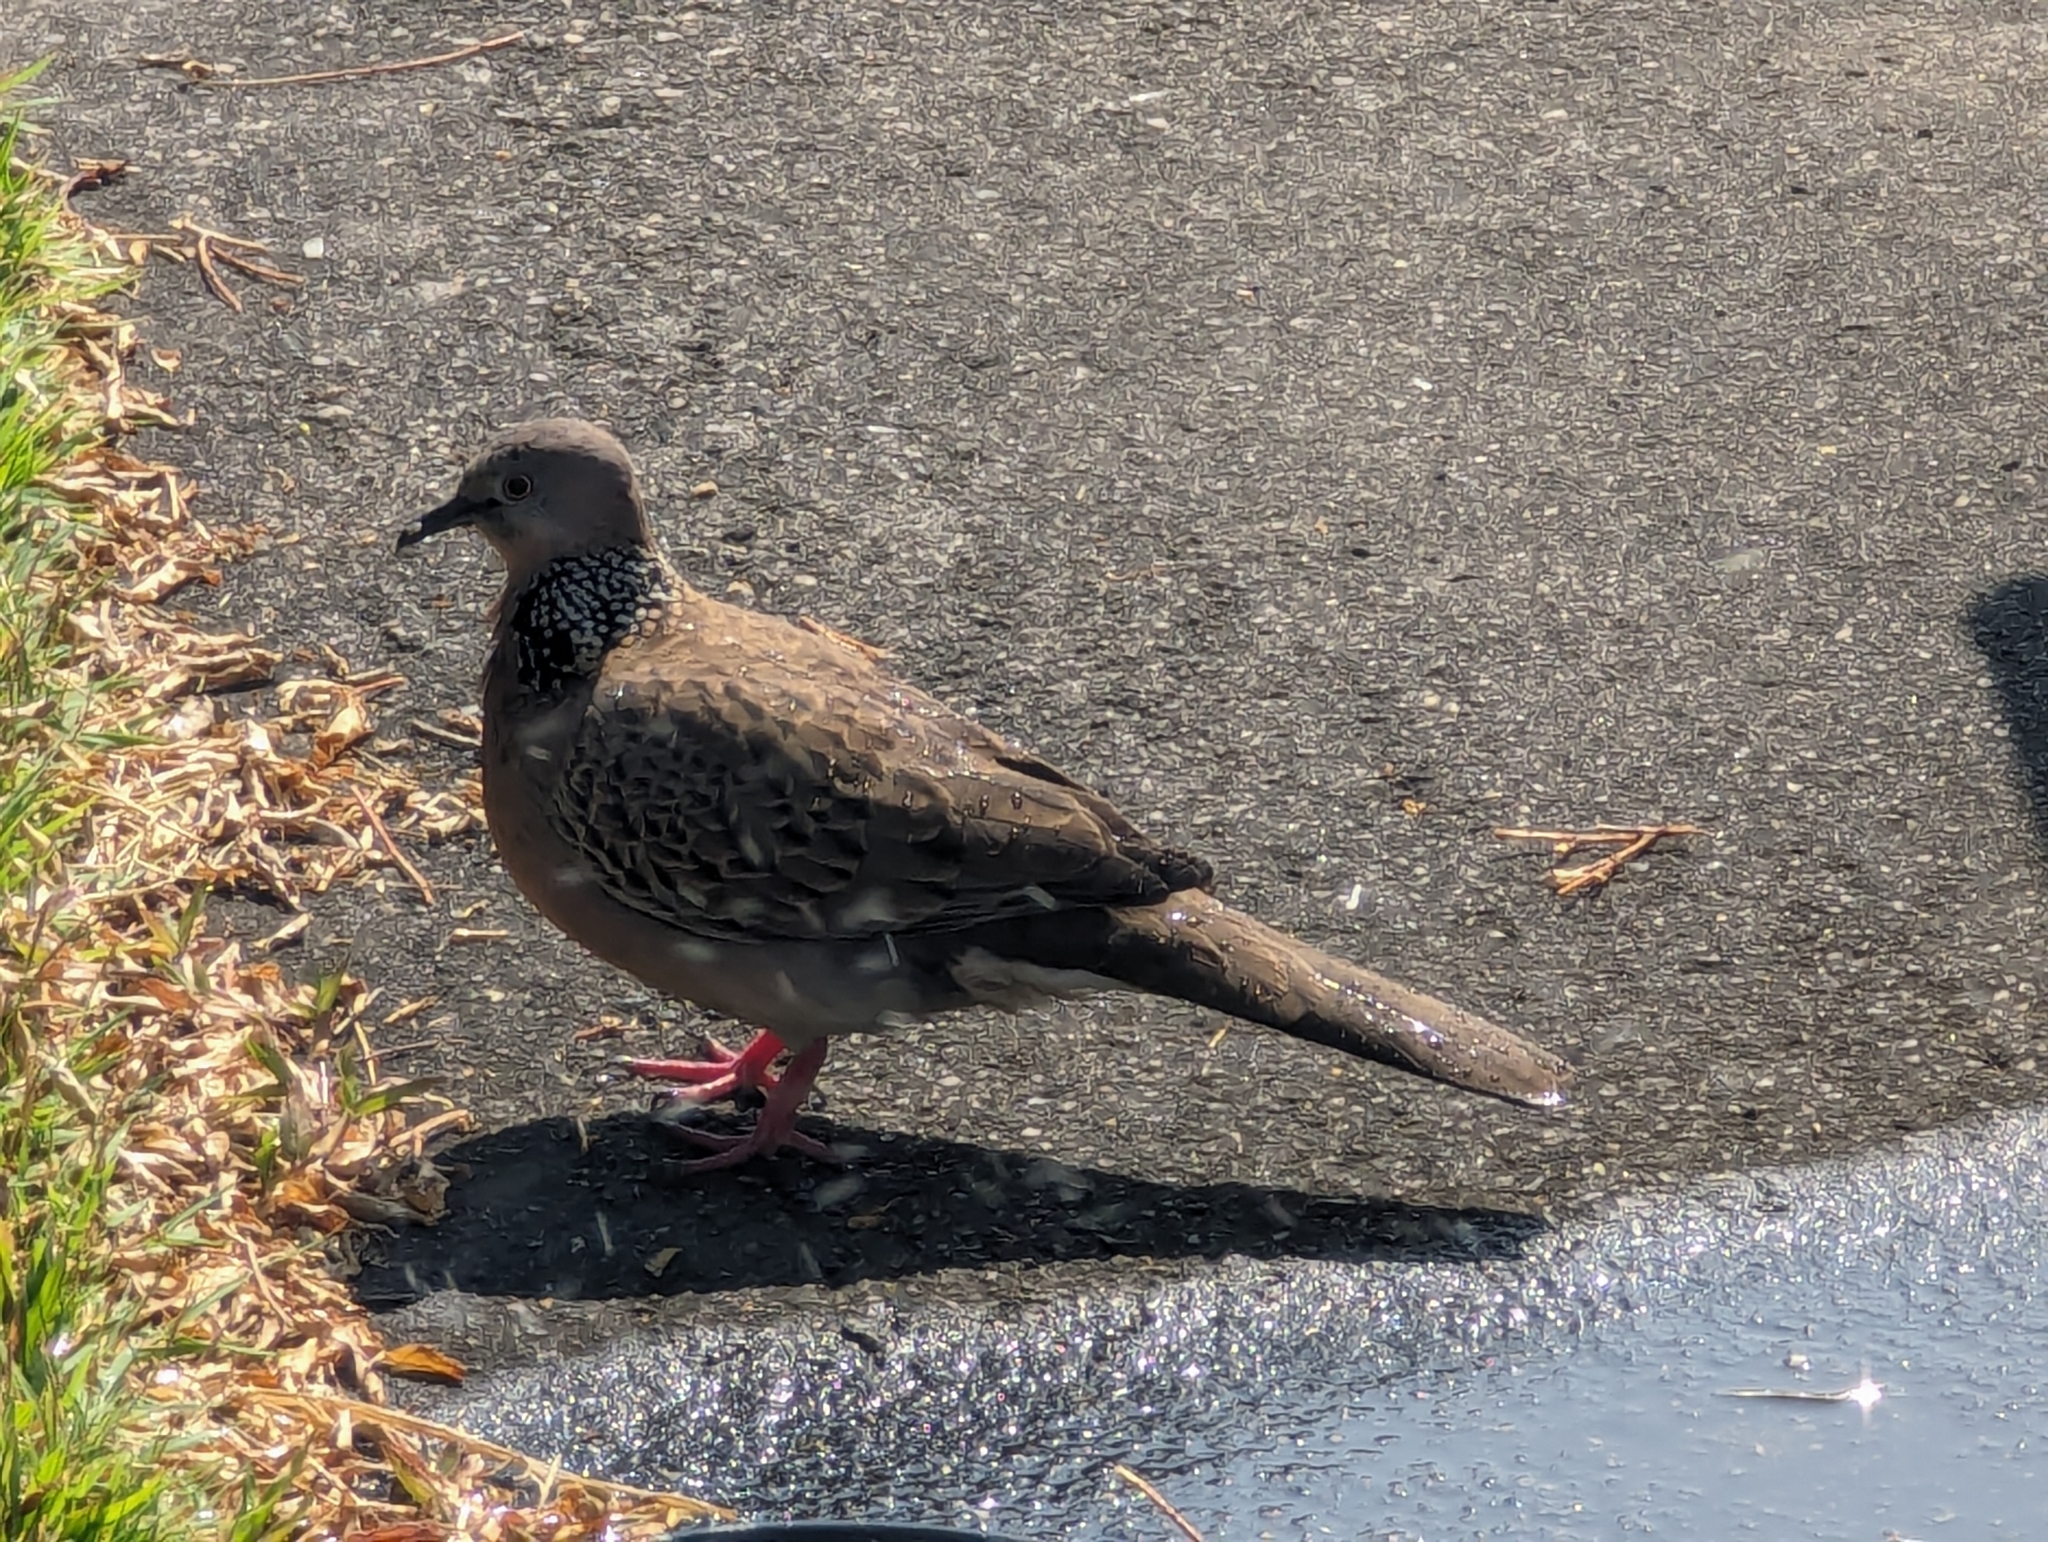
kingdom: Animalia
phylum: Chordata
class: Aves
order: Columbiformes
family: Columbidae
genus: Spilopelia
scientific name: Spilopelia chinensis
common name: Spotted dove
